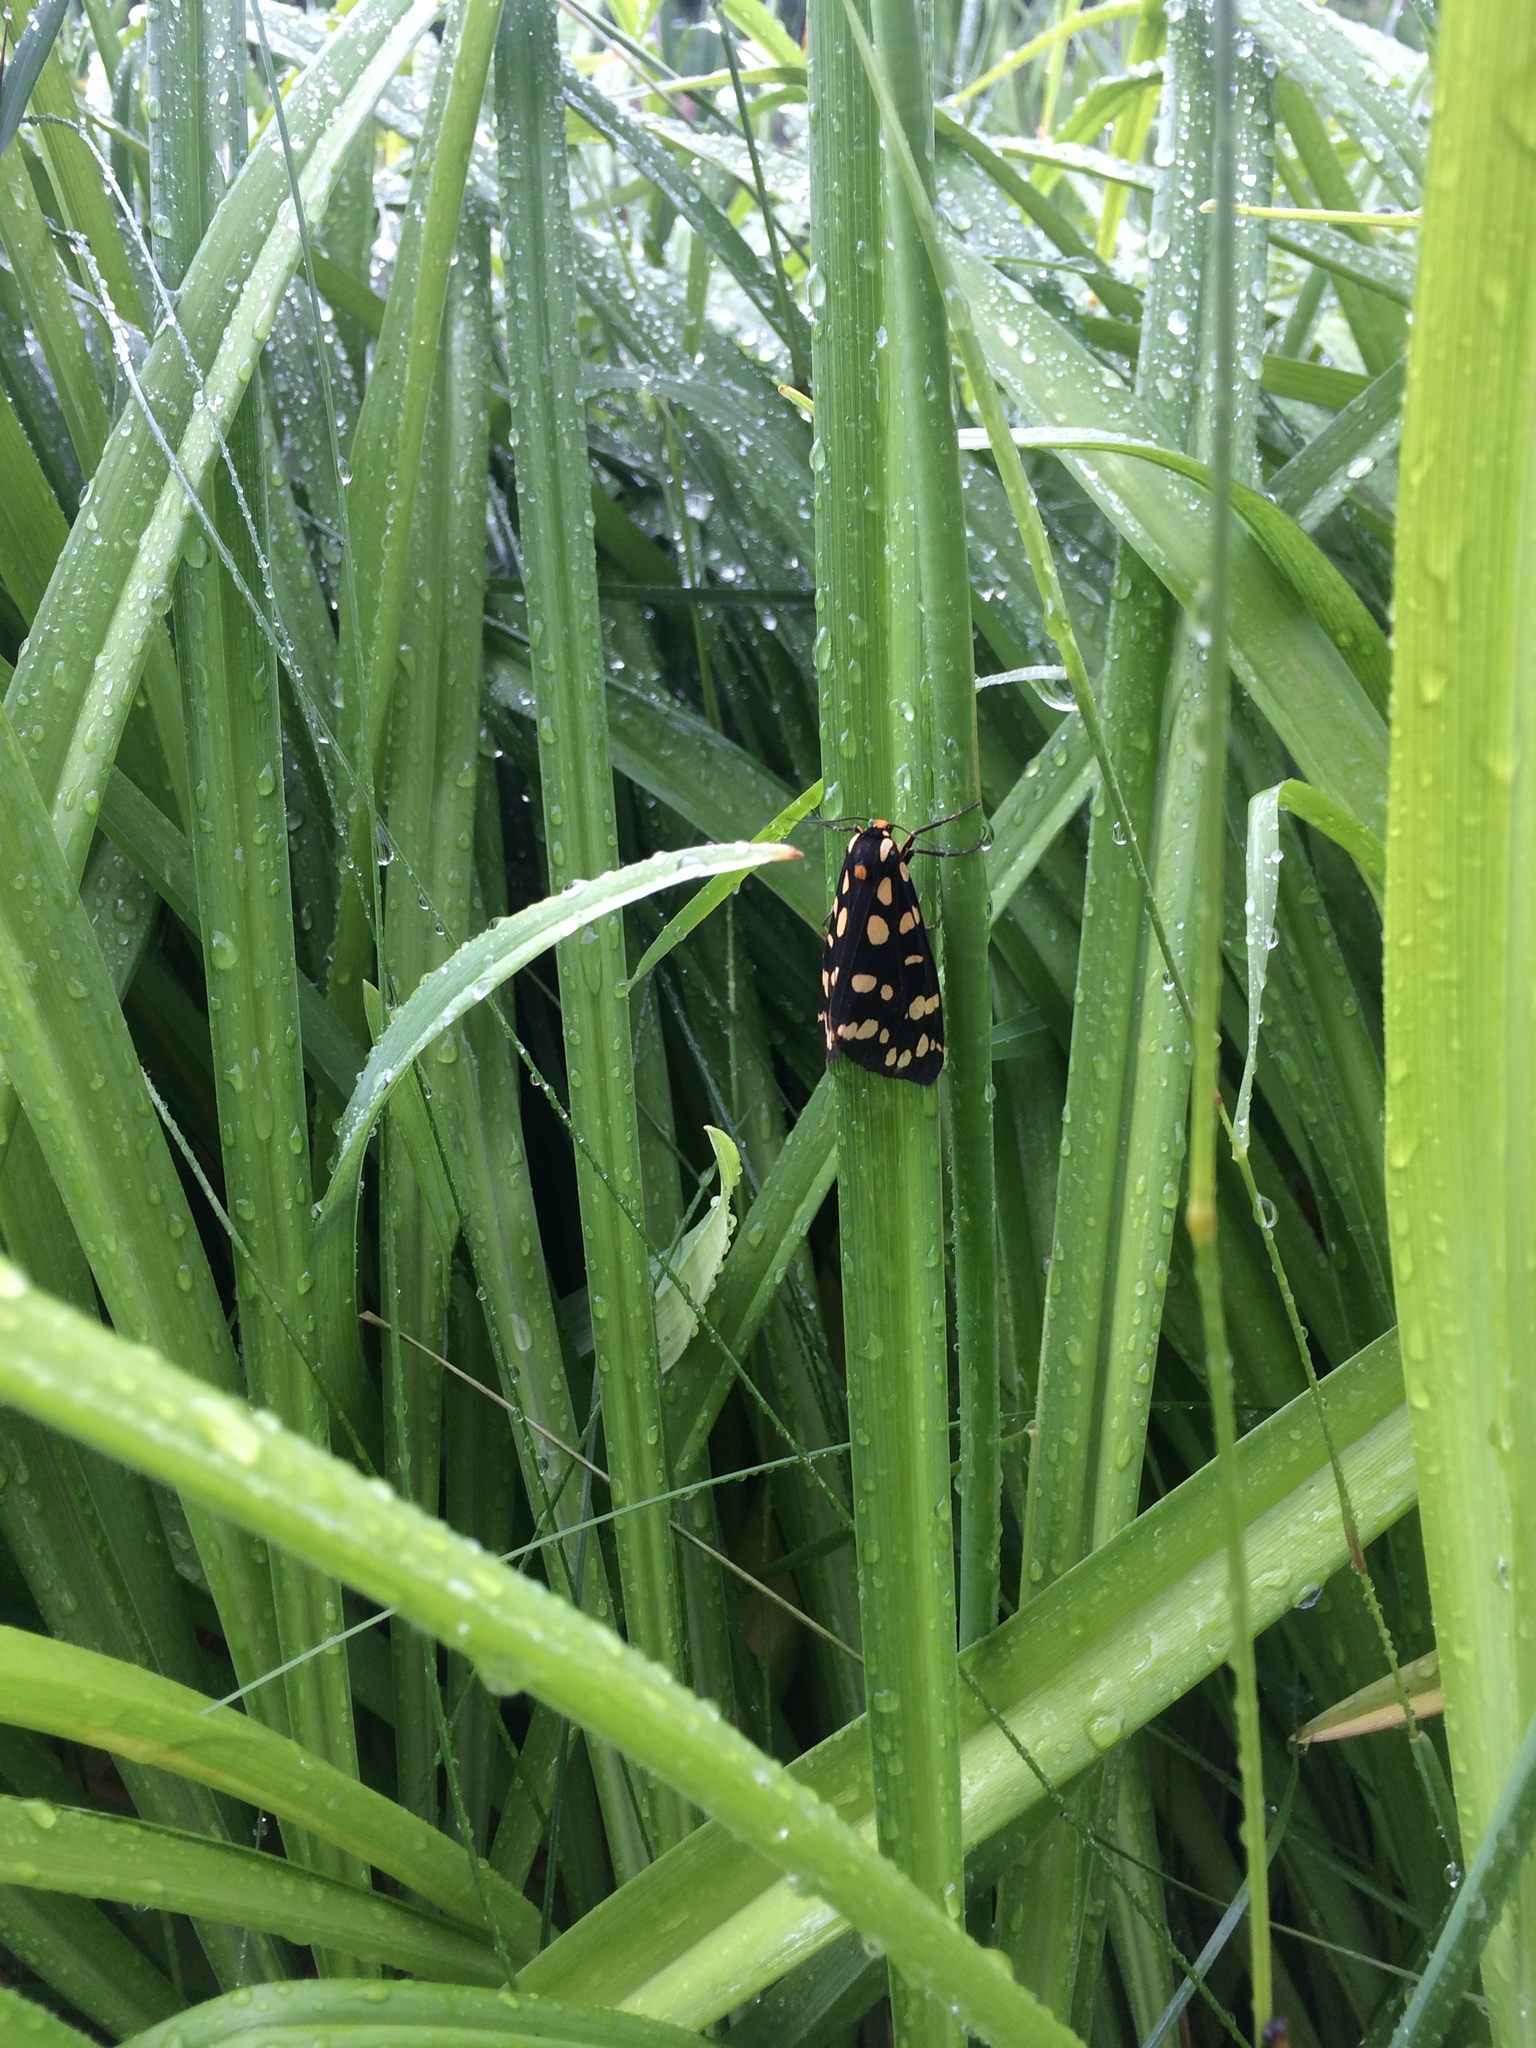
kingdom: Animalia
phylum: Arthropoda
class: Insecta
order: Lepidoptera
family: Erebidae
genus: Arctia
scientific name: Arctia tigrina
